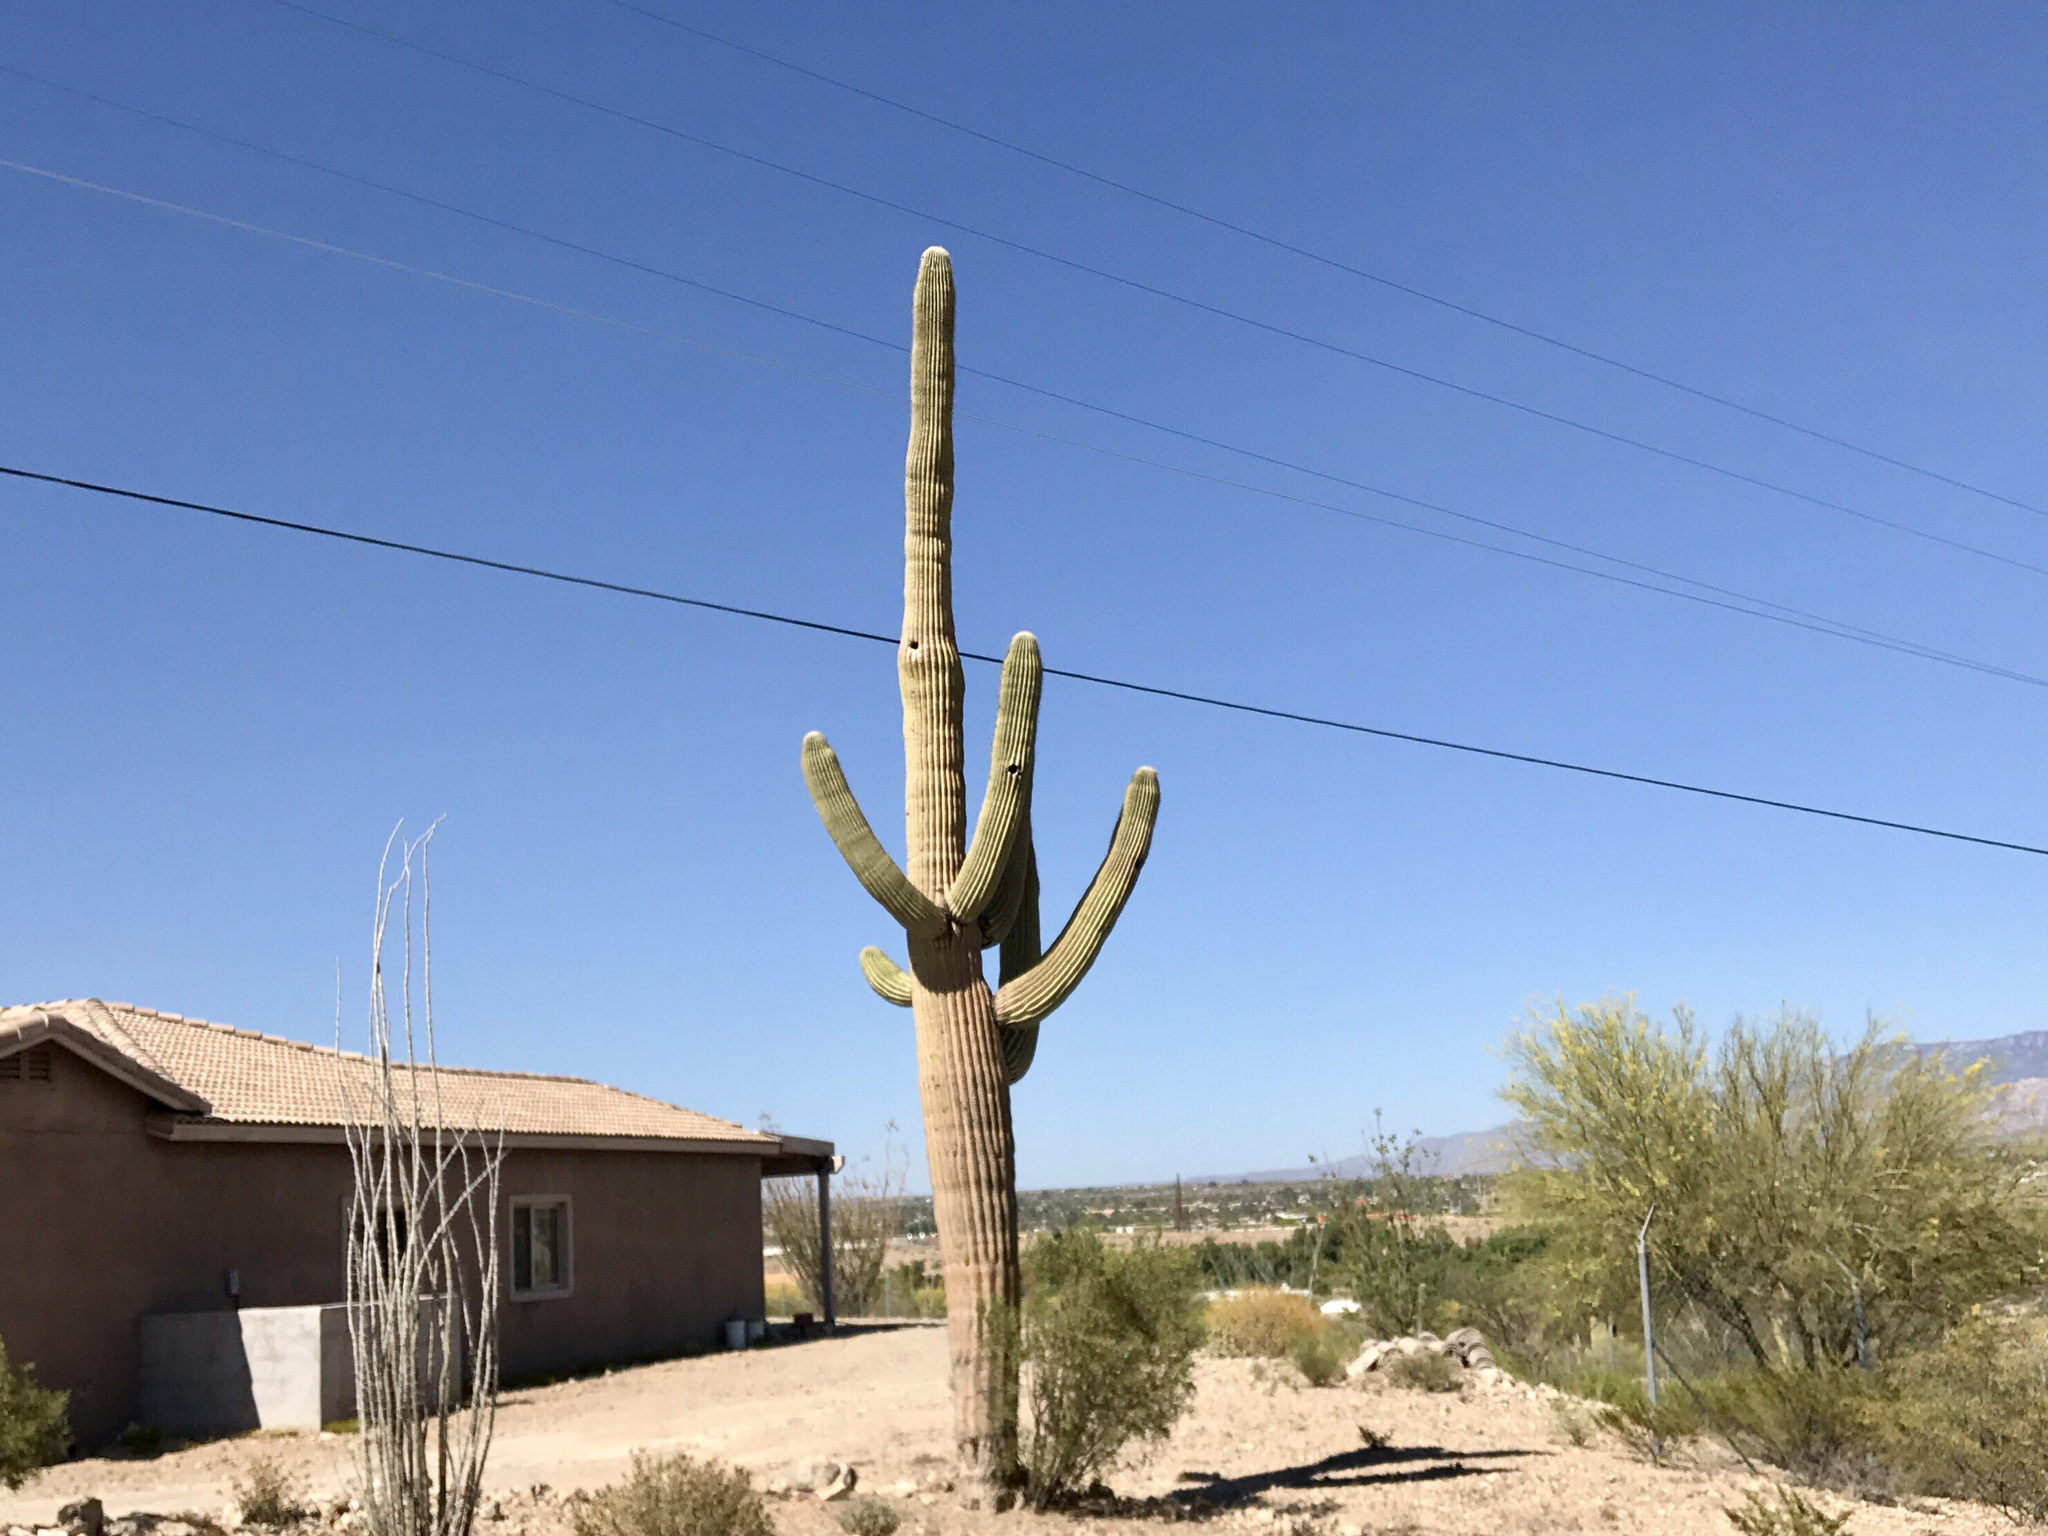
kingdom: Plantae
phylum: Tracheophyta
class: Magnoliopsida
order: Caryophyllales
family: Cactaceae
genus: Carnegiea
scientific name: Carnegiea gigantea
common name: Saguaro
